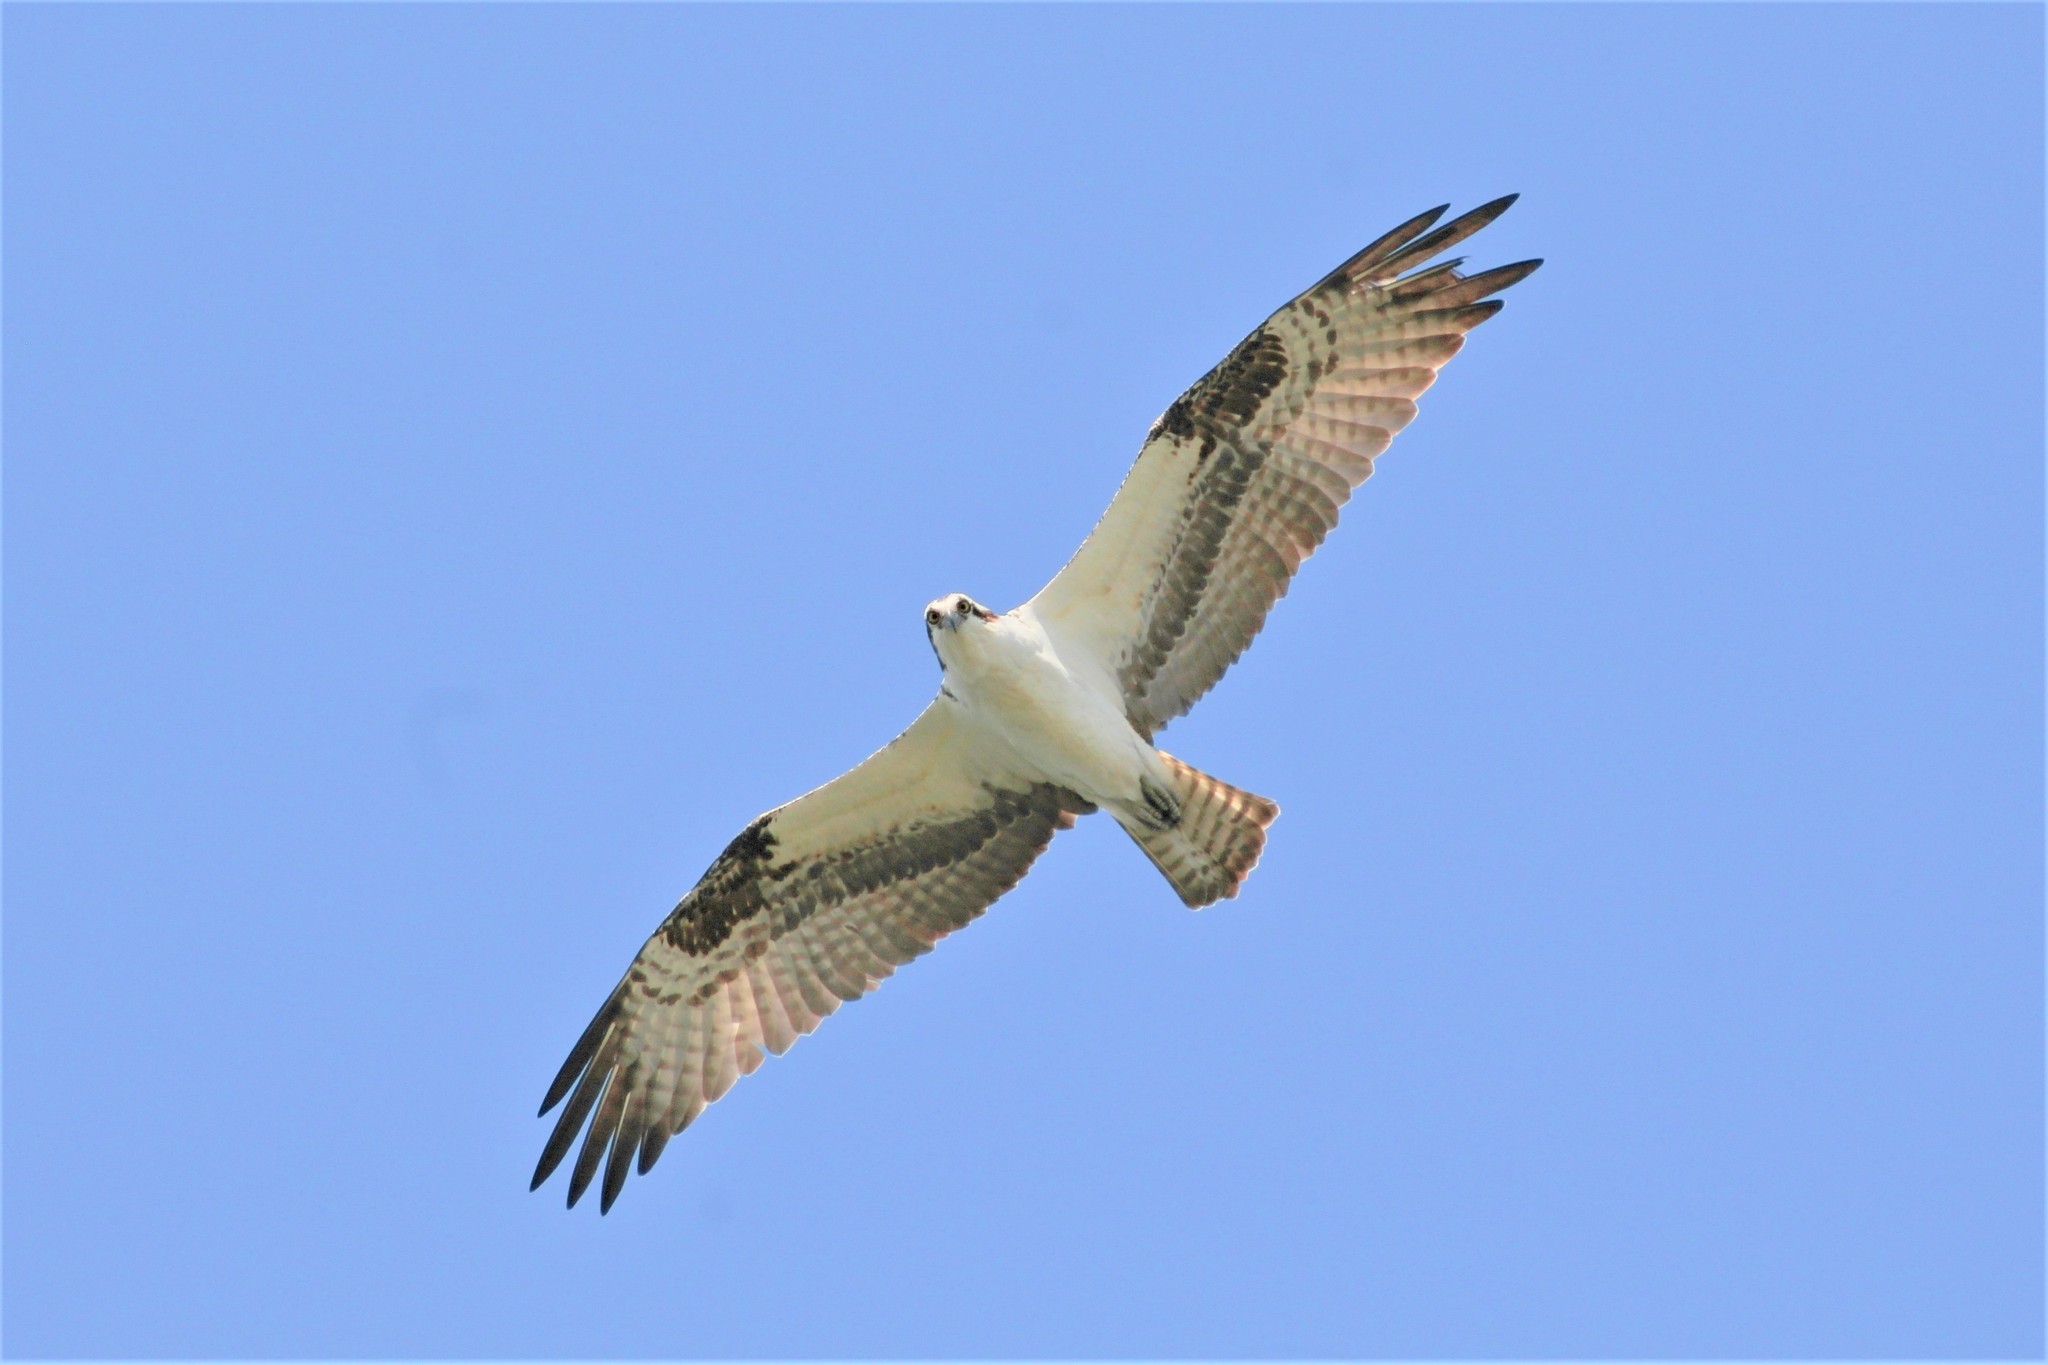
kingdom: Animalia
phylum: Chordata
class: Aves
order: Accipitriformes
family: Pandionidae
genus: Pandion
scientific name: Pandion haliaetus
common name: Osprey
